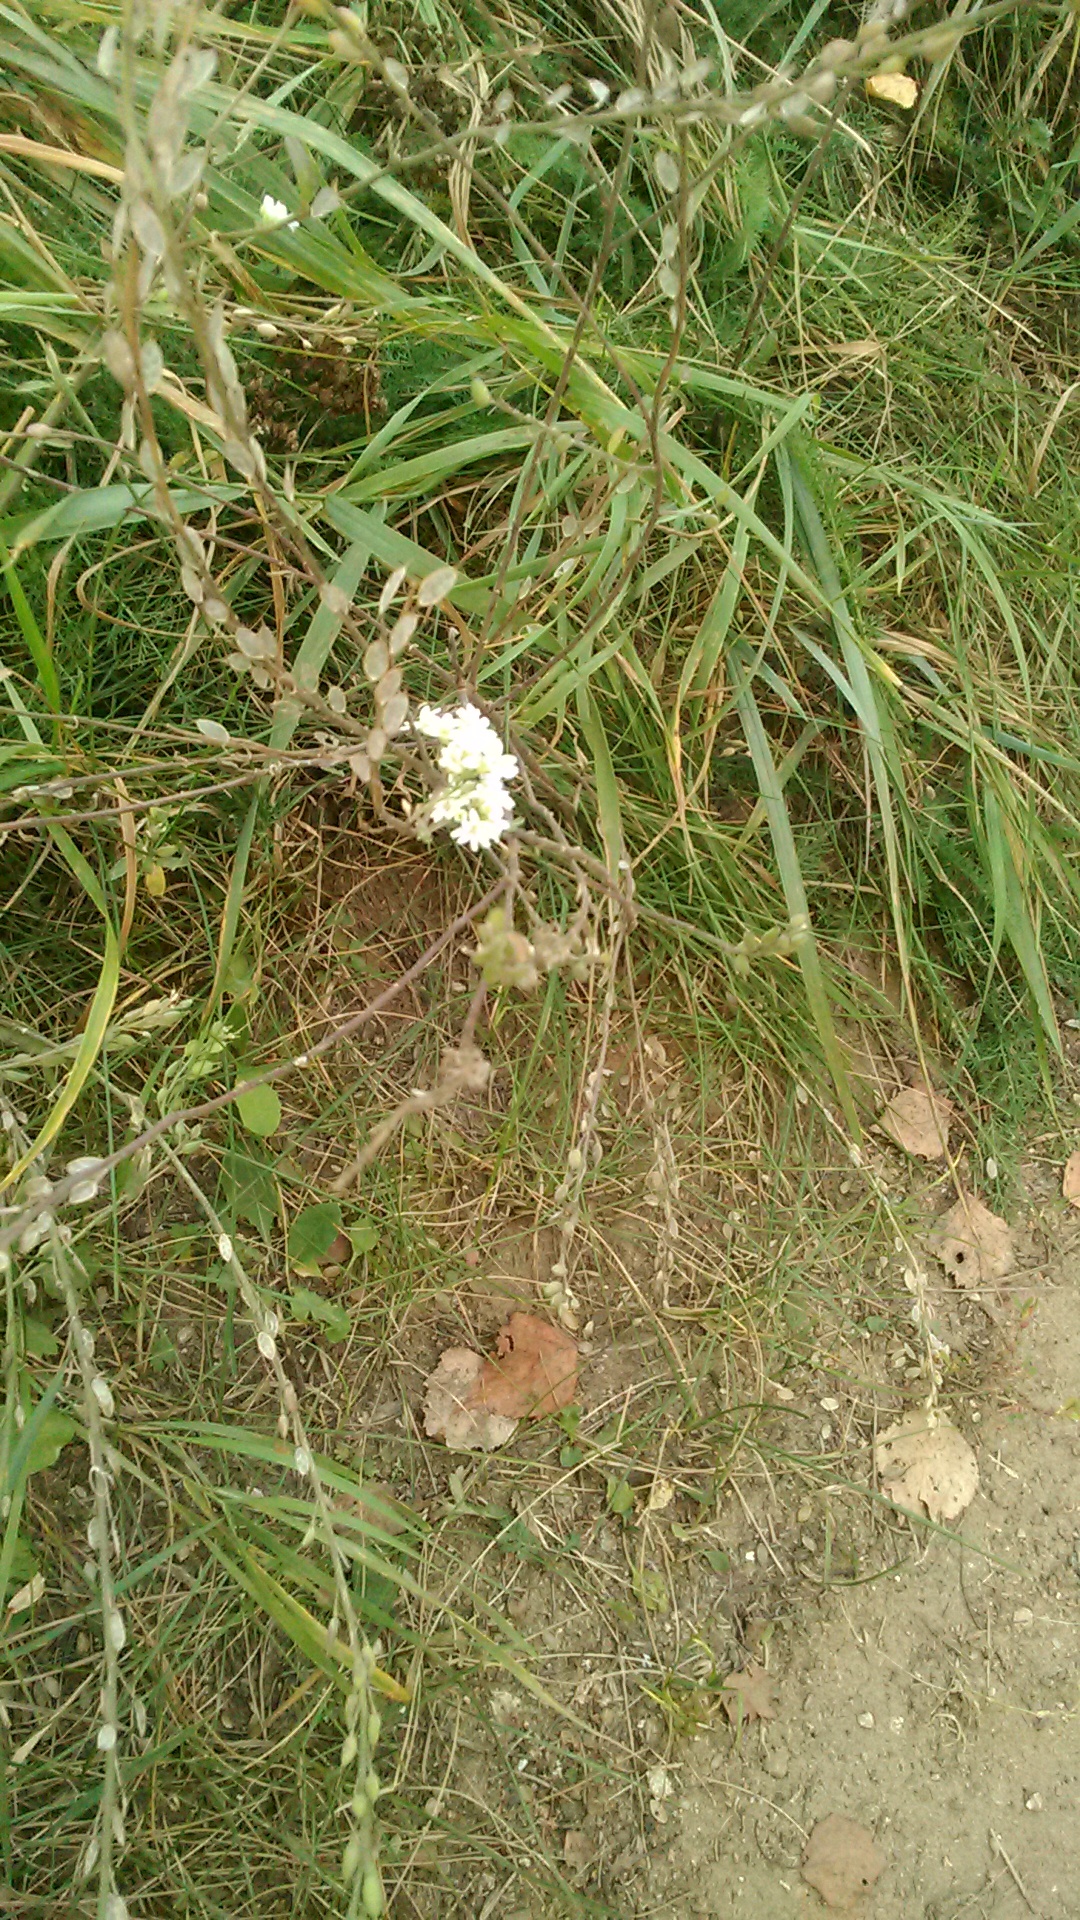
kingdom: Plantae
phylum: Tracheophyta
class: Magnoliopsida
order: Brassicales
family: Brassicaceae
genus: Berteroa
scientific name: Berteroa incana
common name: Hoary alison
